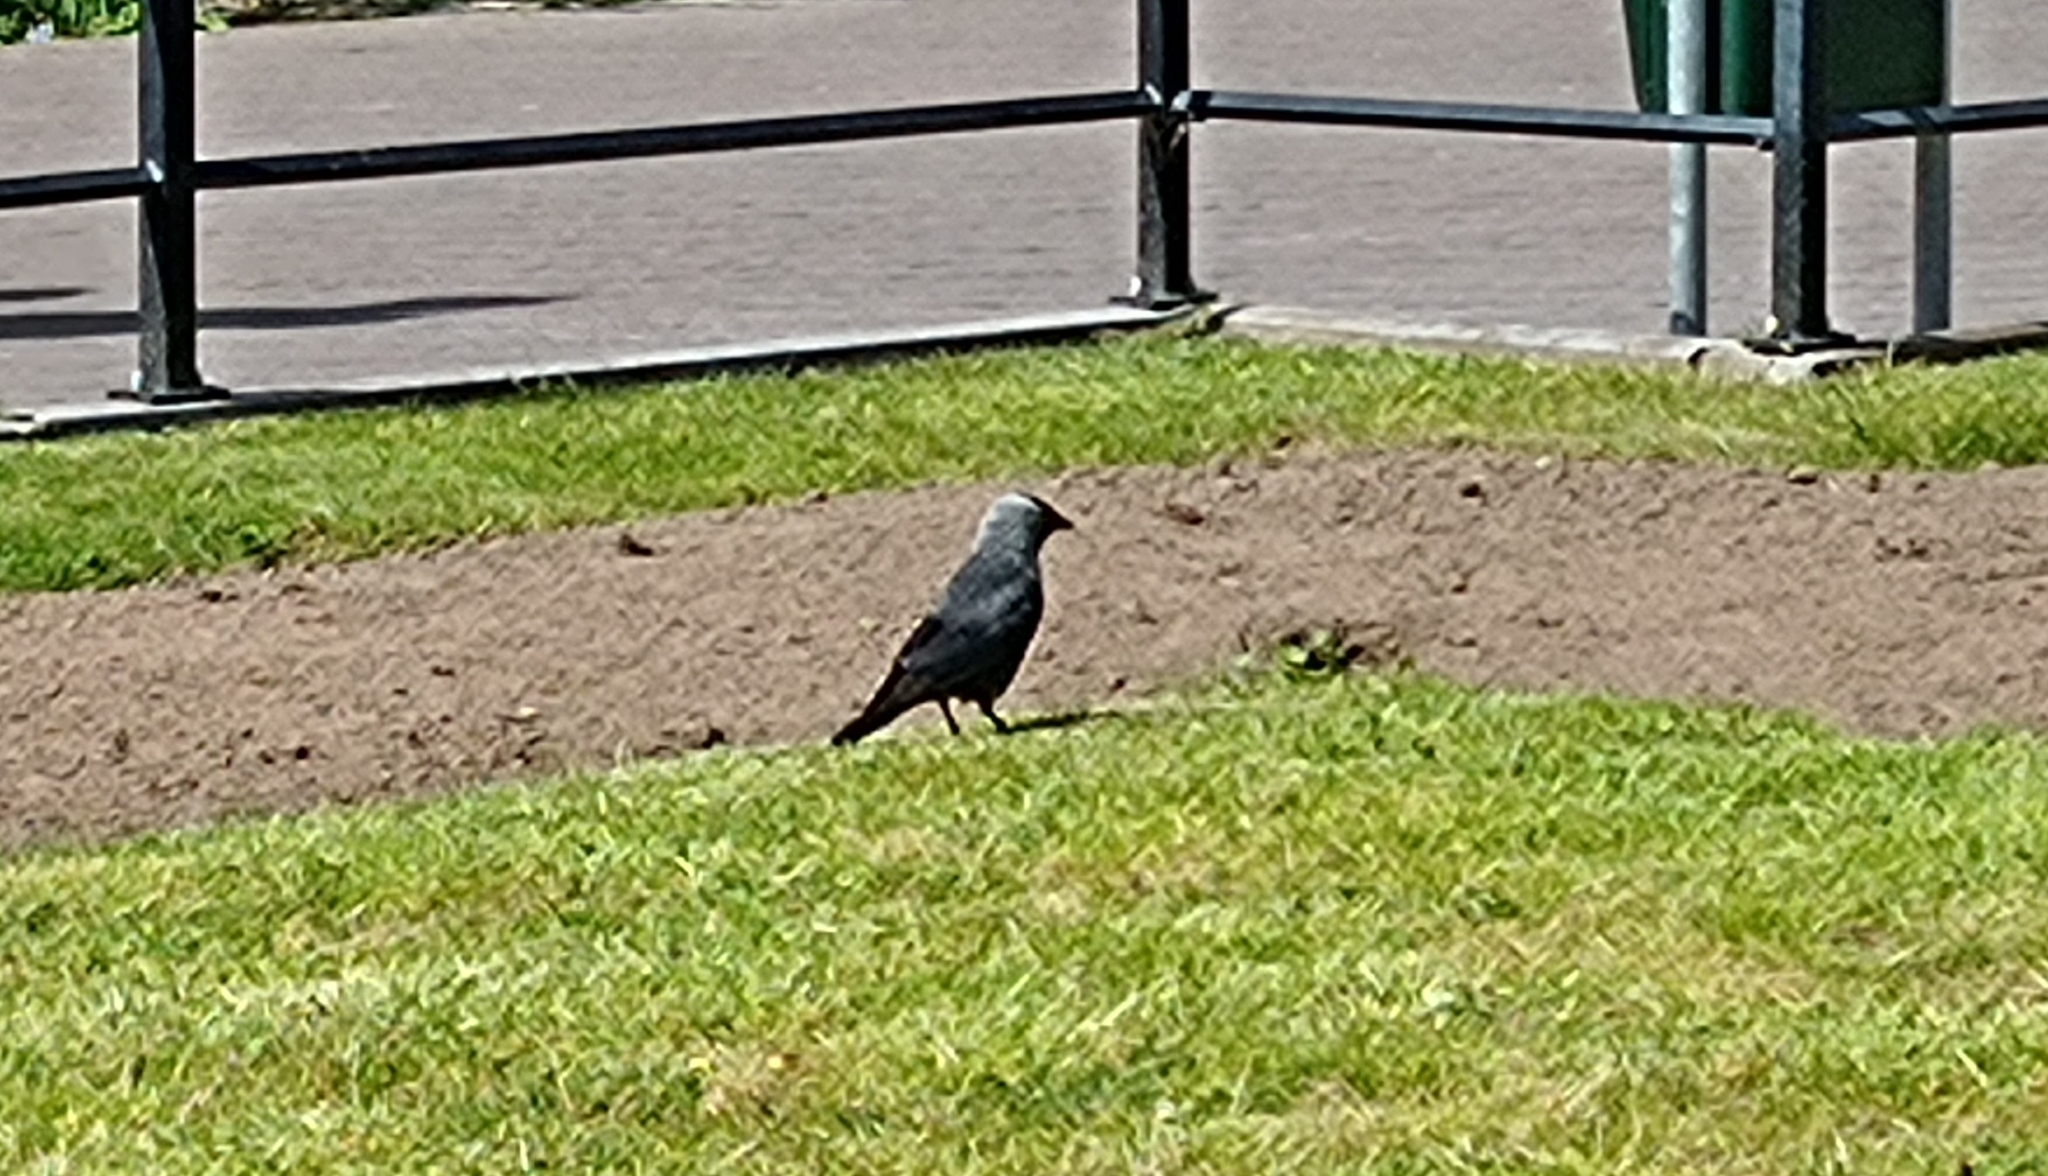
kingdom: Animalia
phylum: Chordata
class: Aves
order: Passeriformes
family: Corvidae
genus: Coloeus
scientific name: Coloeus monedula
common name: Western jackdaw
